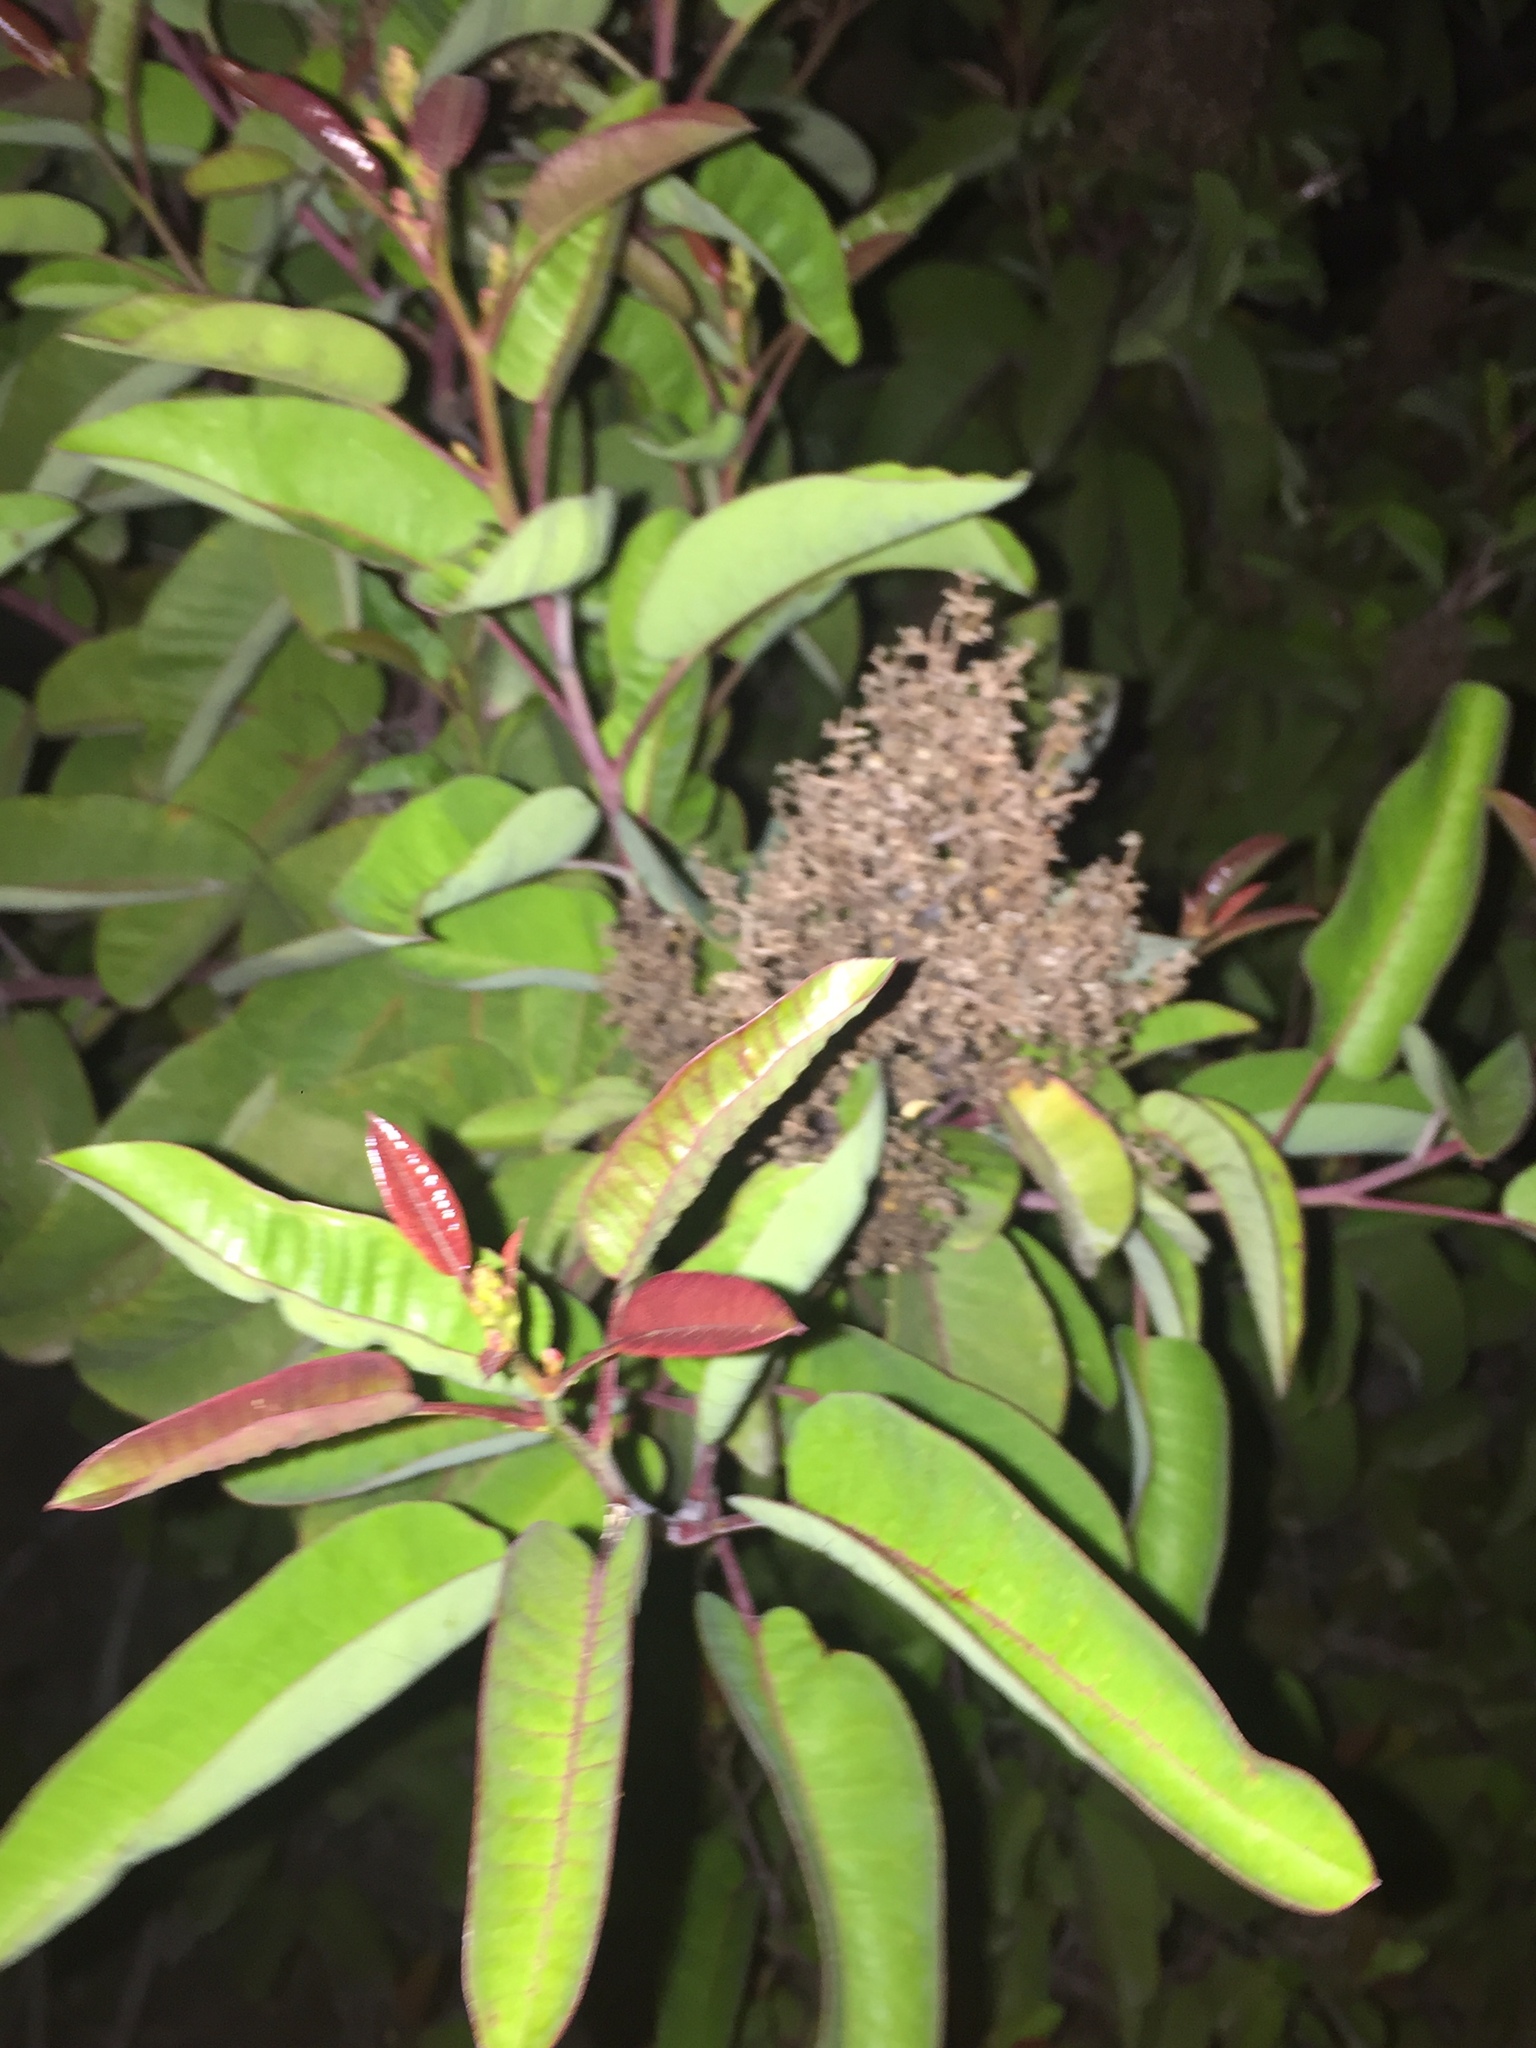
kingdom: Plantae
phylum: Tracheophyta
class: Magnoliopsida
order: Sapindales
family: Anacardiaceae
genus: Malosma
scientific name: Malosma laurina
